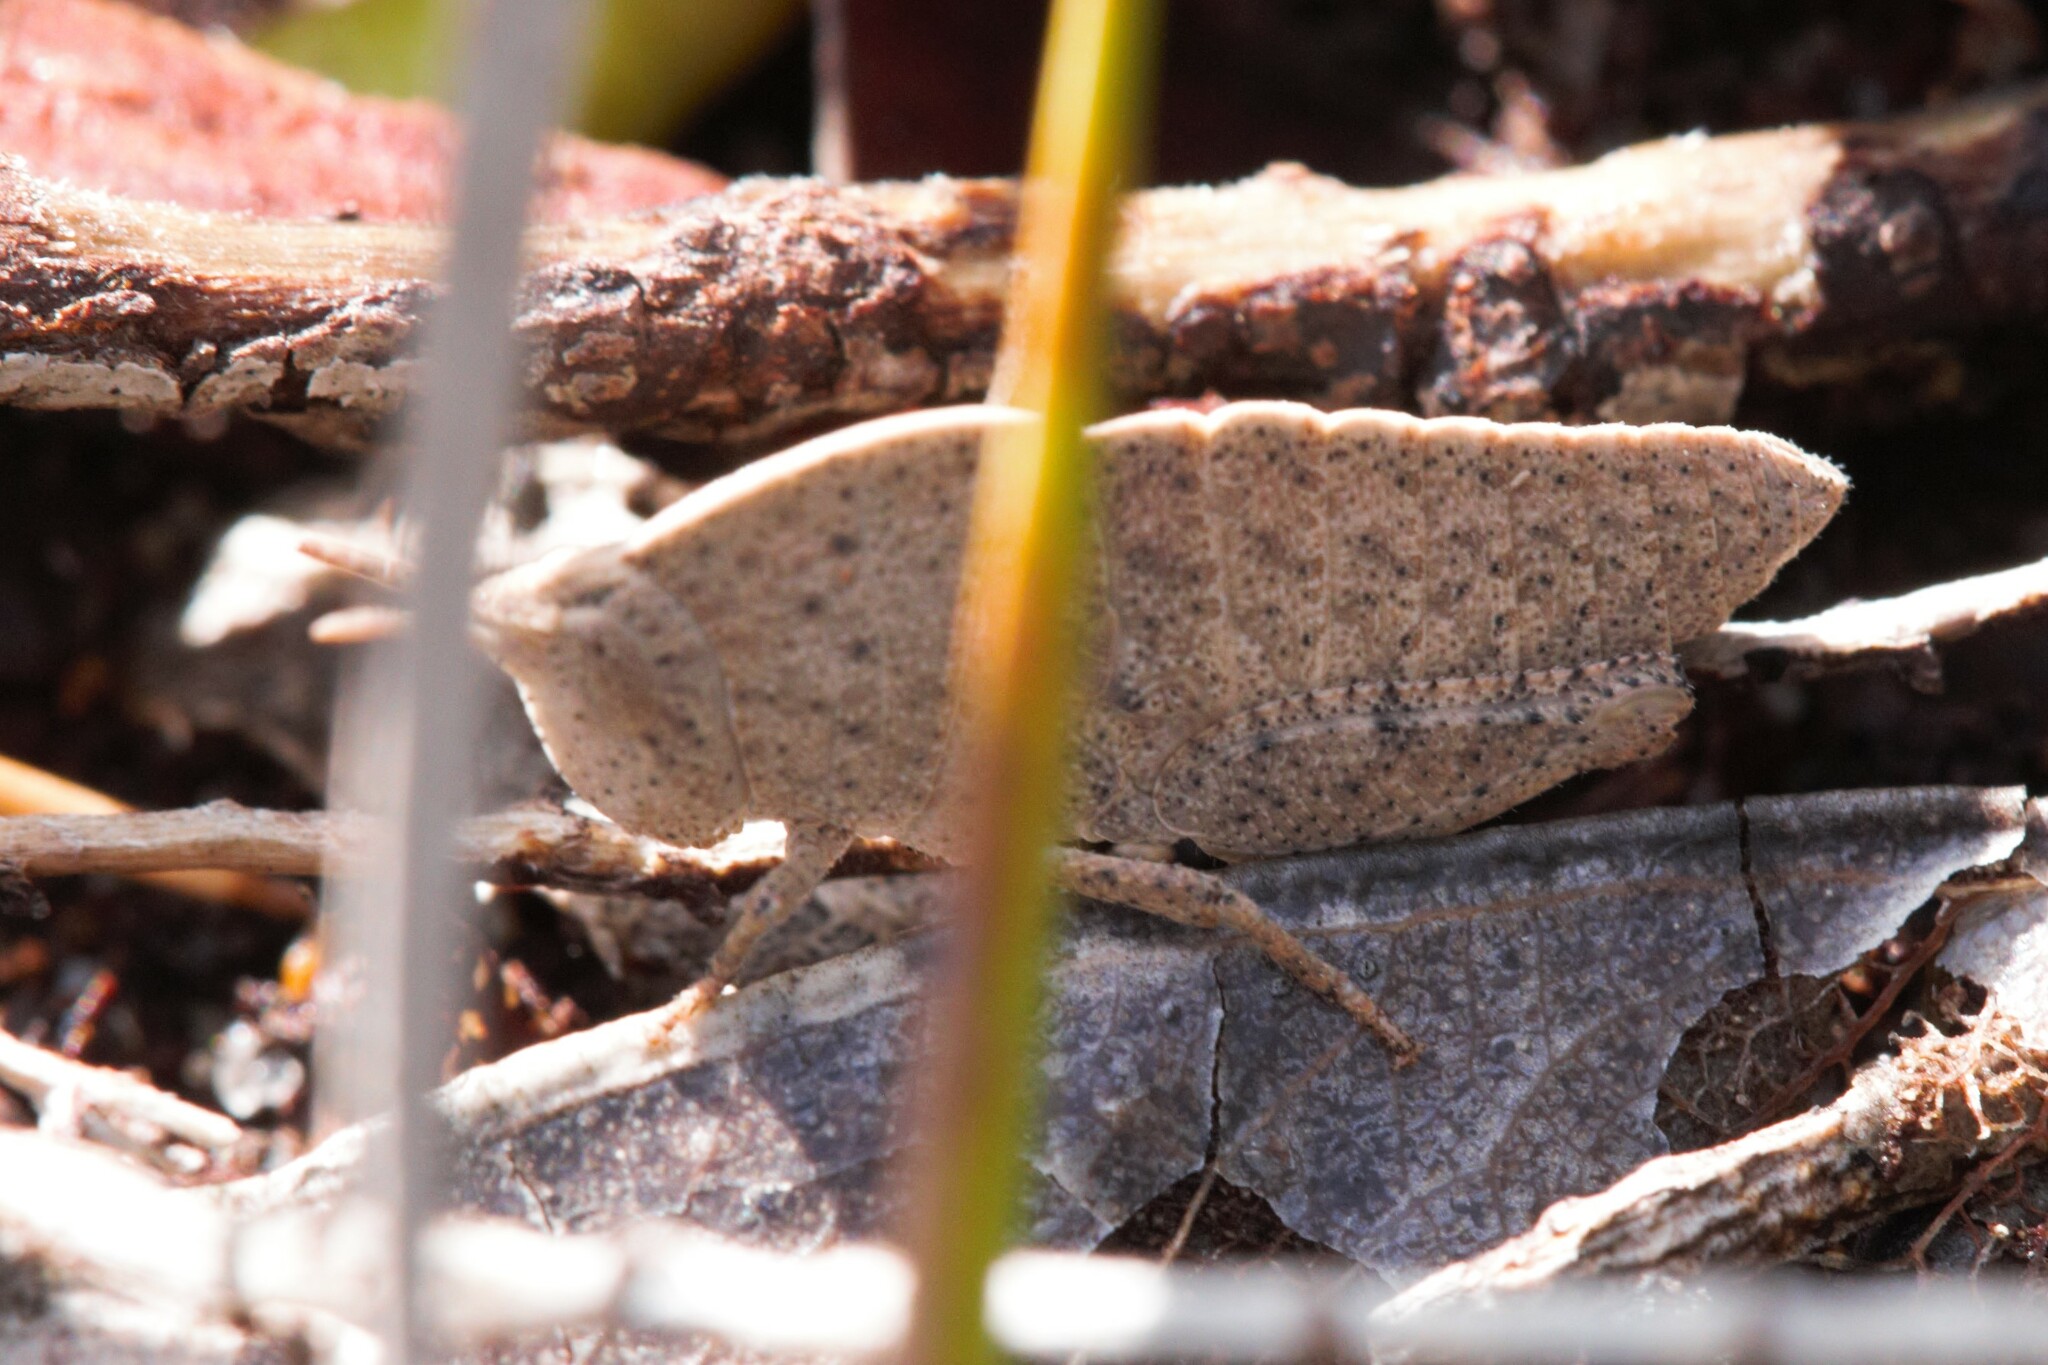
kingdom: Animalia
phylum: Arthropoda
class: Insecta
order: Orthoptera
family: Acrididae
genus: Goniaea
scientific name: Goniaea australasiae
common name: Gumleaf grasshopper
